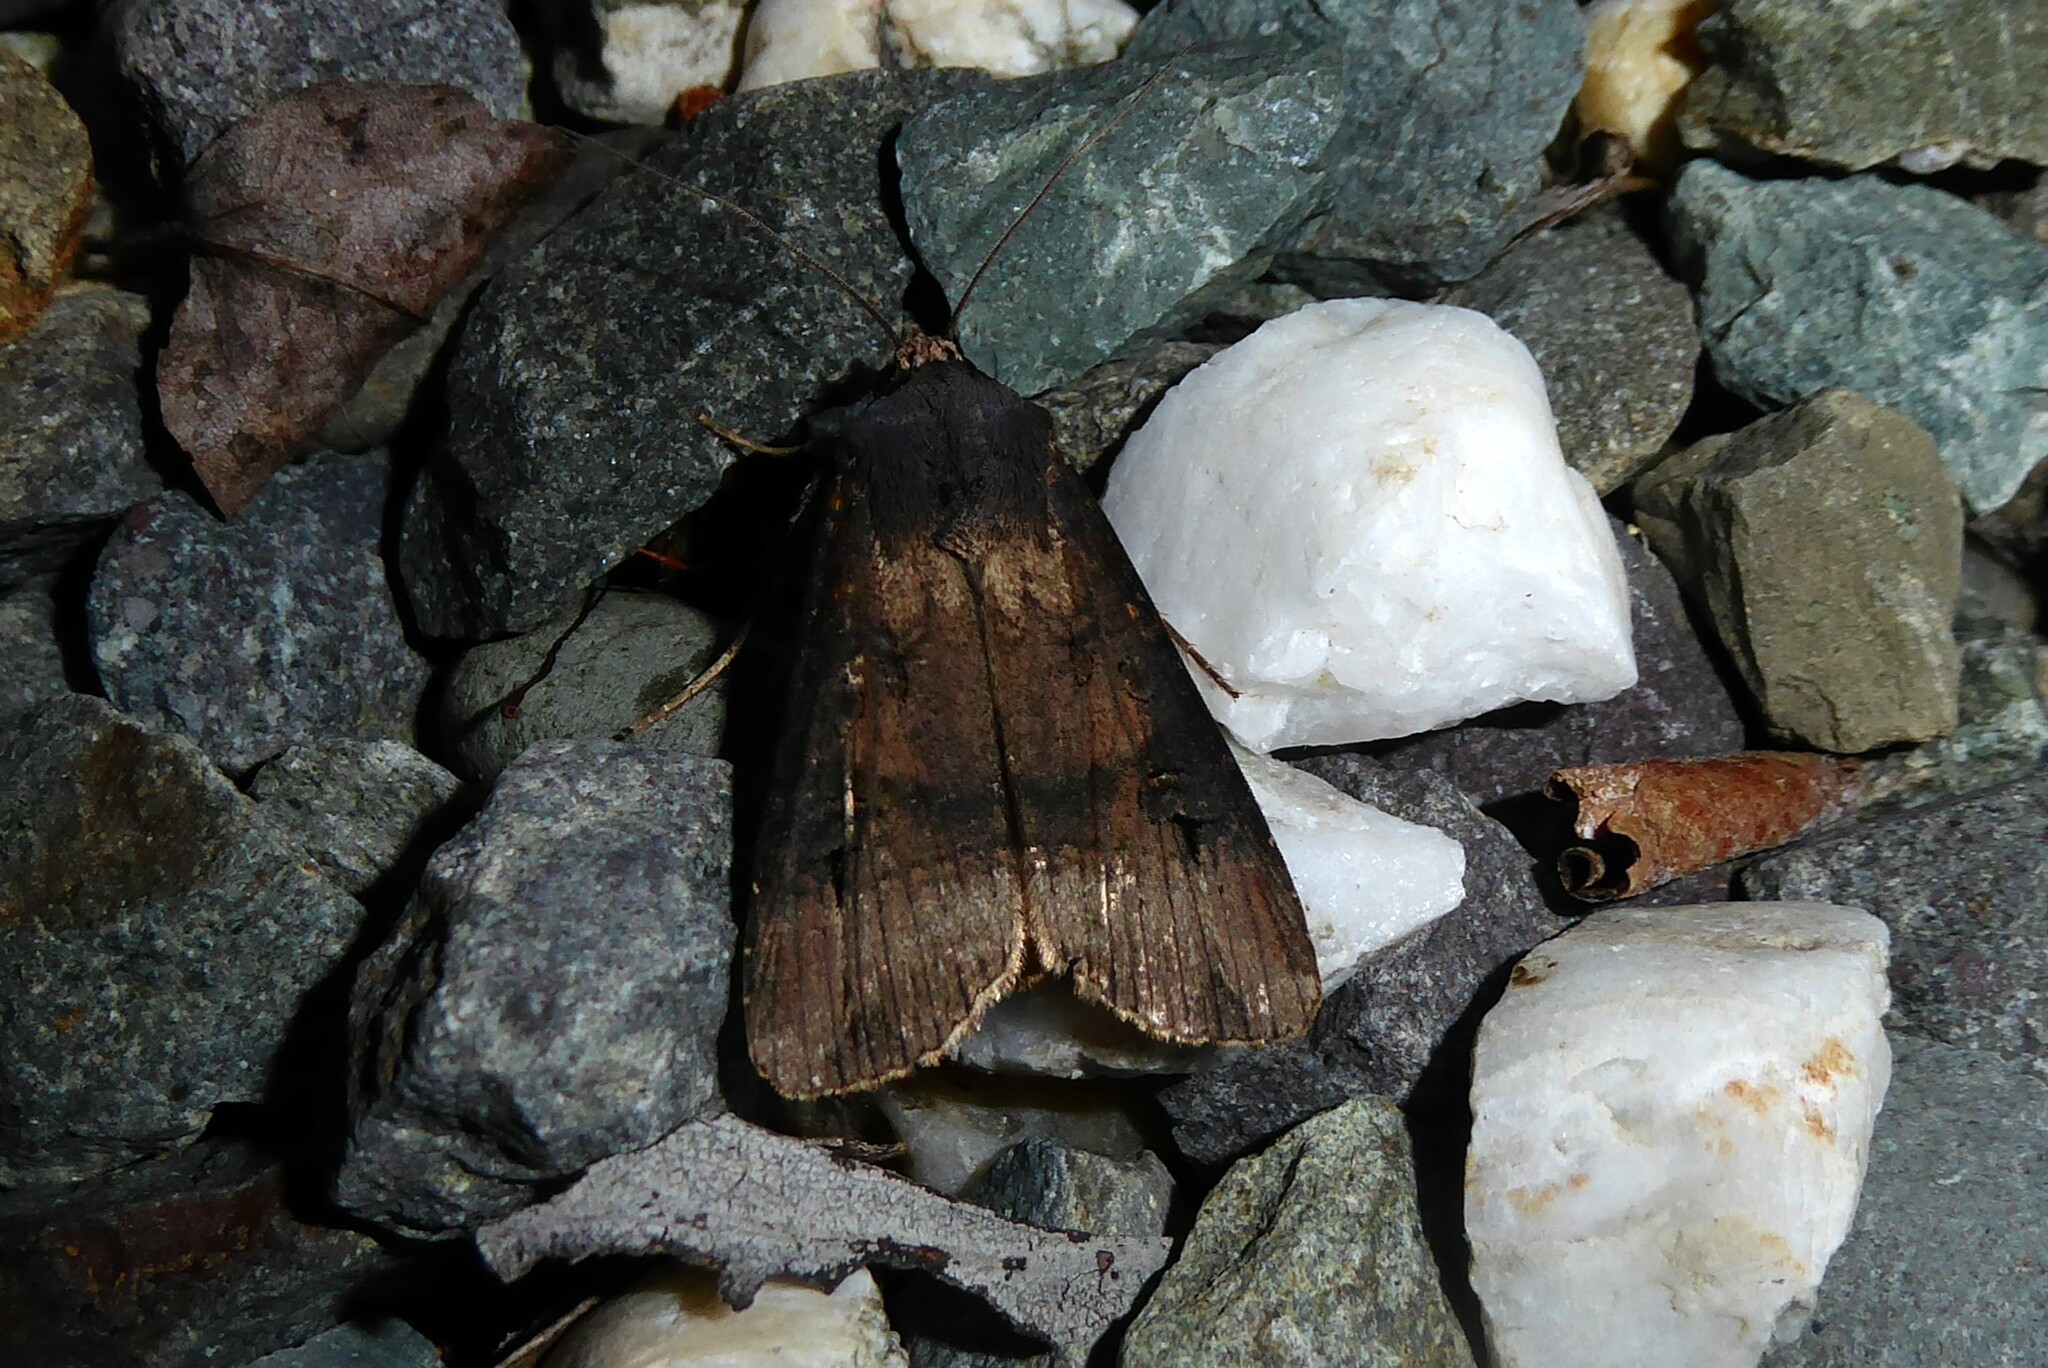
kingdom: Animalia
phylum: Arthropoda
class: Insecta
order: Lepidoptera
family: Noctuidae
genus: Agrotis
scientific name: Agrotis ipsilon
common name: Dark sword-grass
